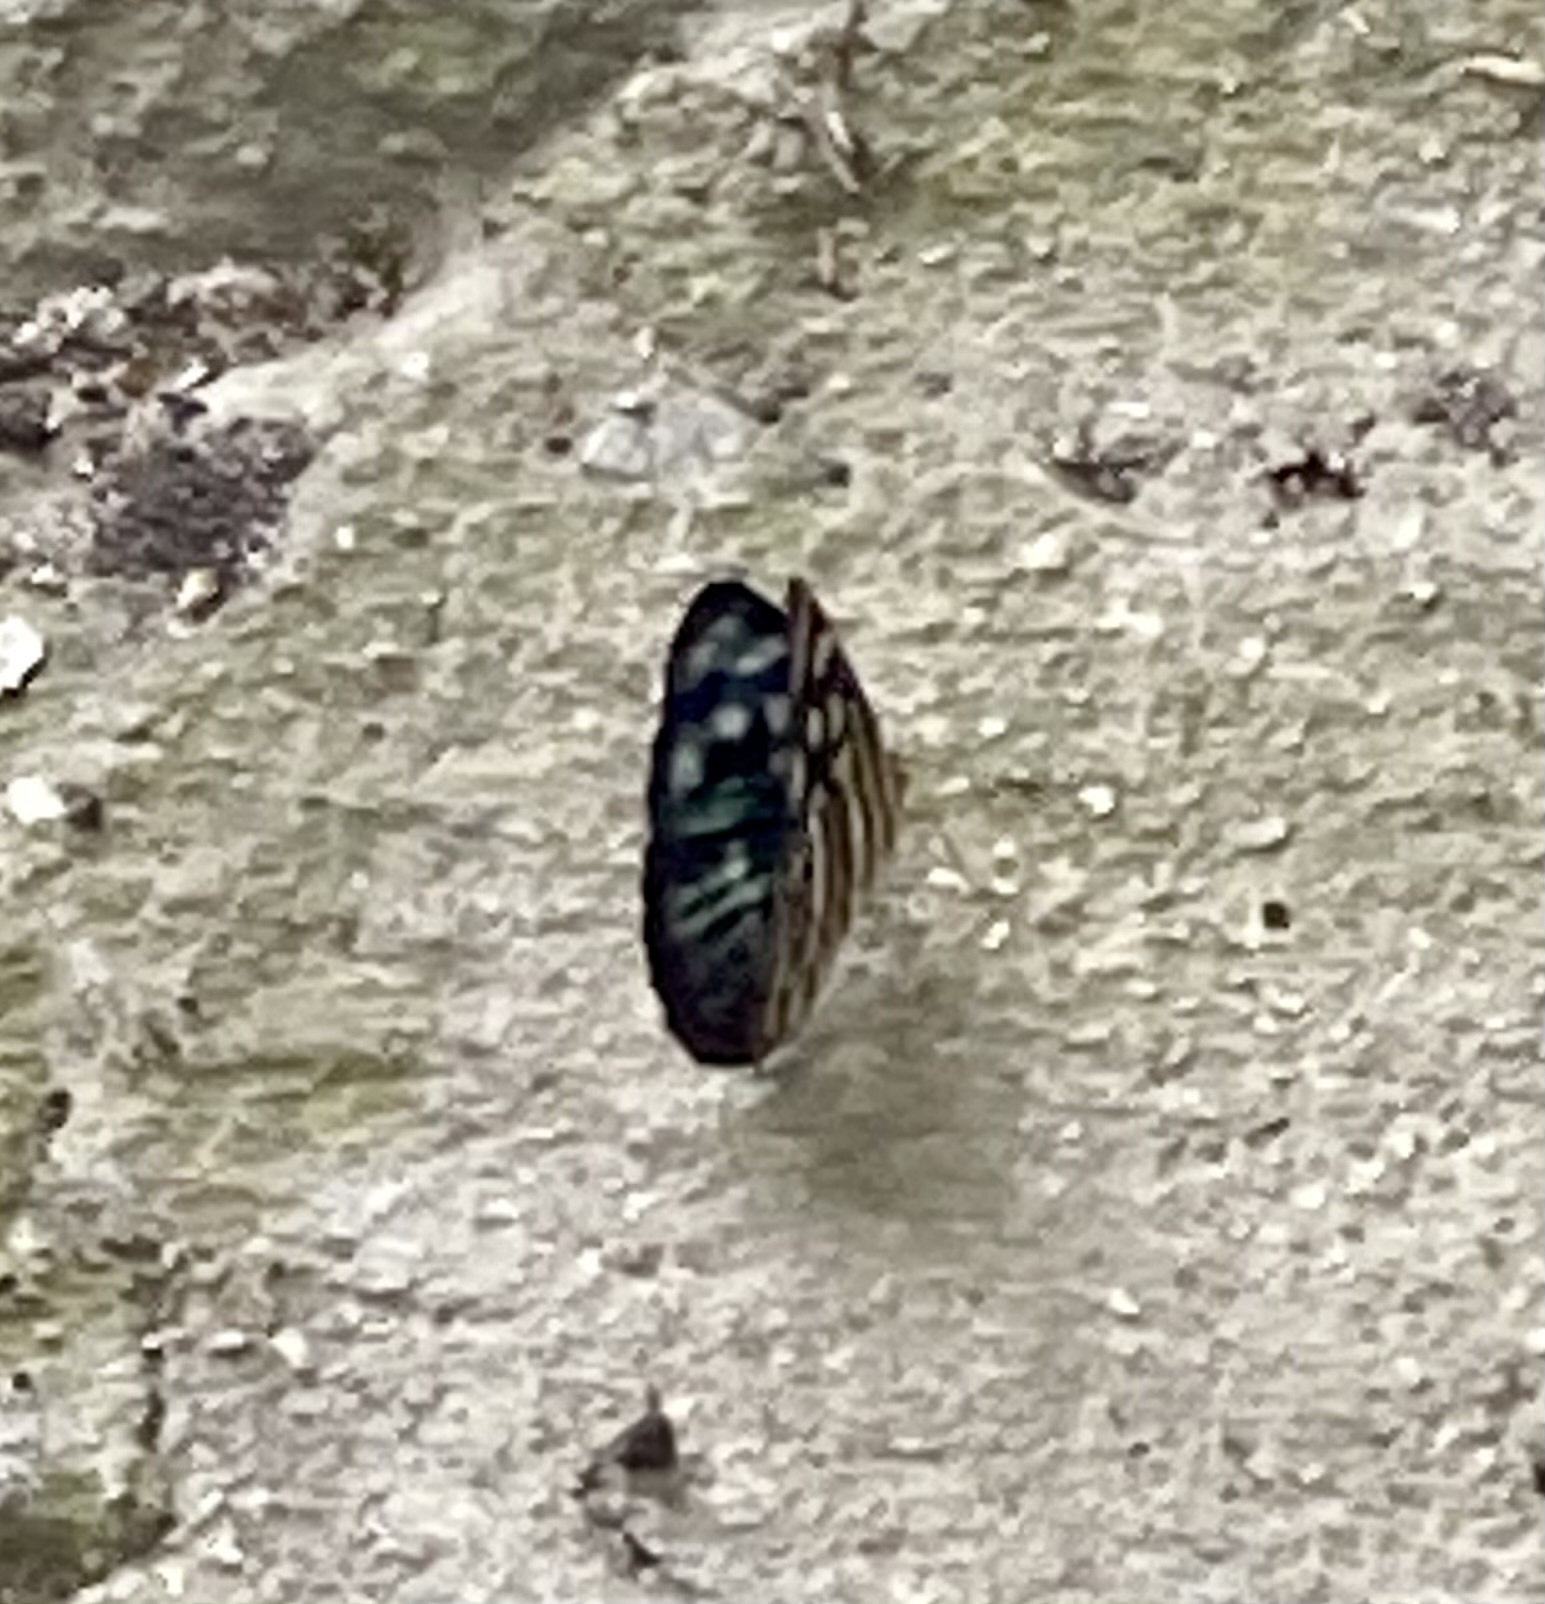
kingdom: Animalia
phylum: Arthropoda
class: Insecta
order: Lepidoptera
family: Nymphalidae
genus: Dynamine
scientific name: Dynamine mylitta
